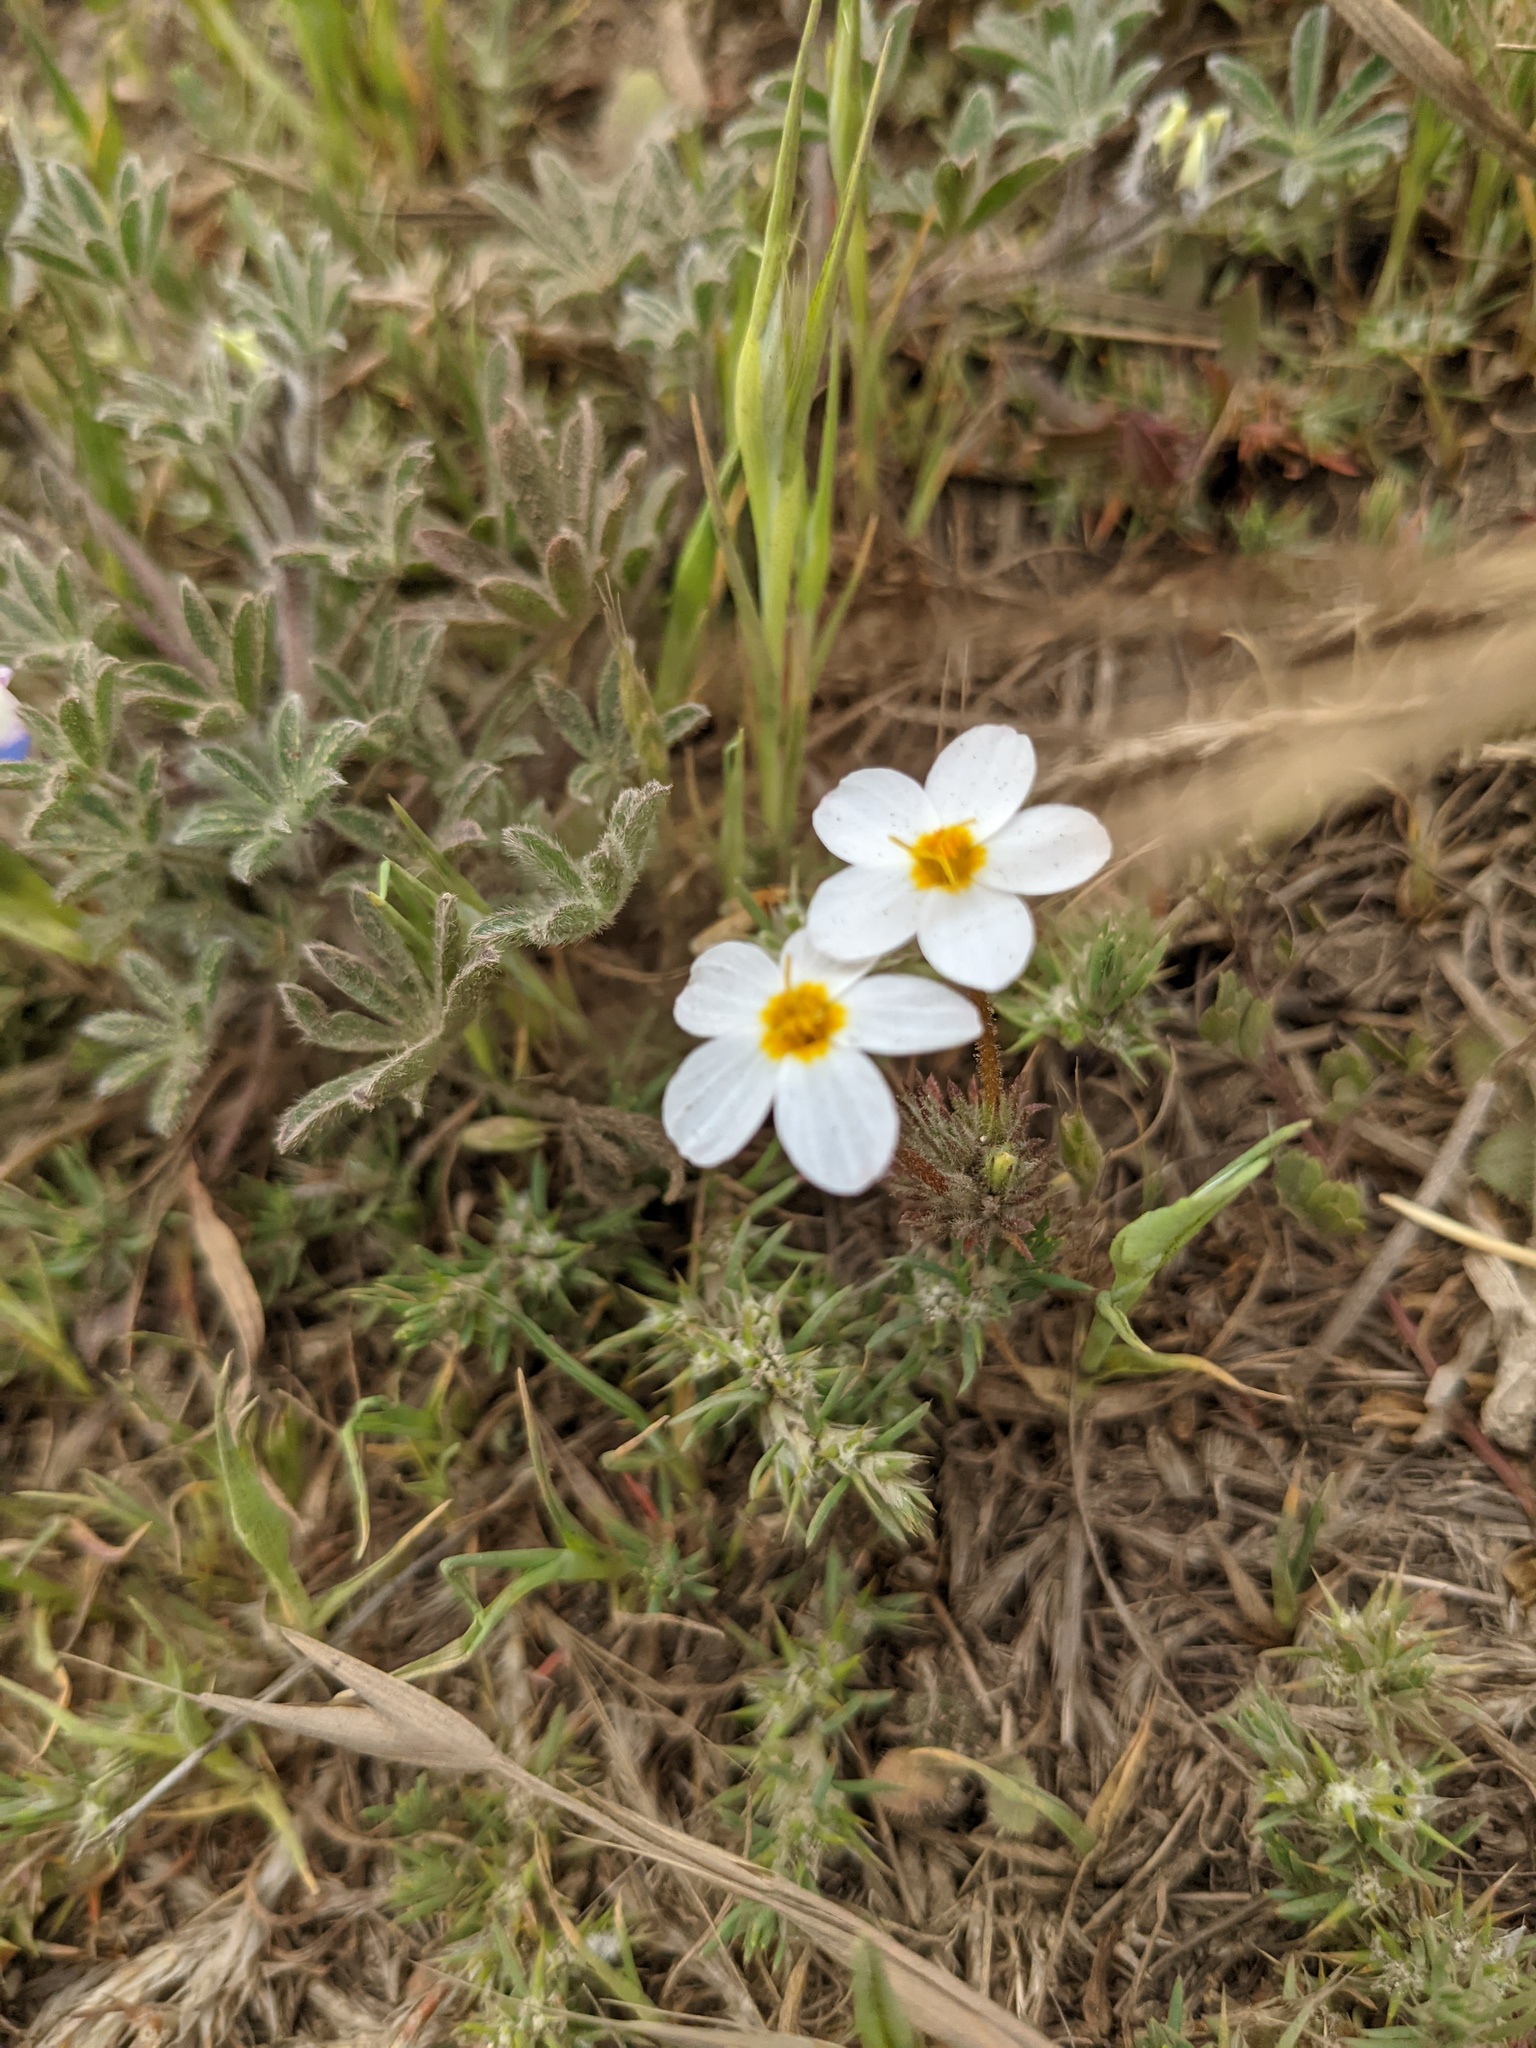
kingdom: Plantae
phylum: Tracheophyta
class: Magnoliopsida
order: Ericales
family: Polemoniaceae
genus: Leptosiphon
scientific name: Leptosiphon parviflorus
